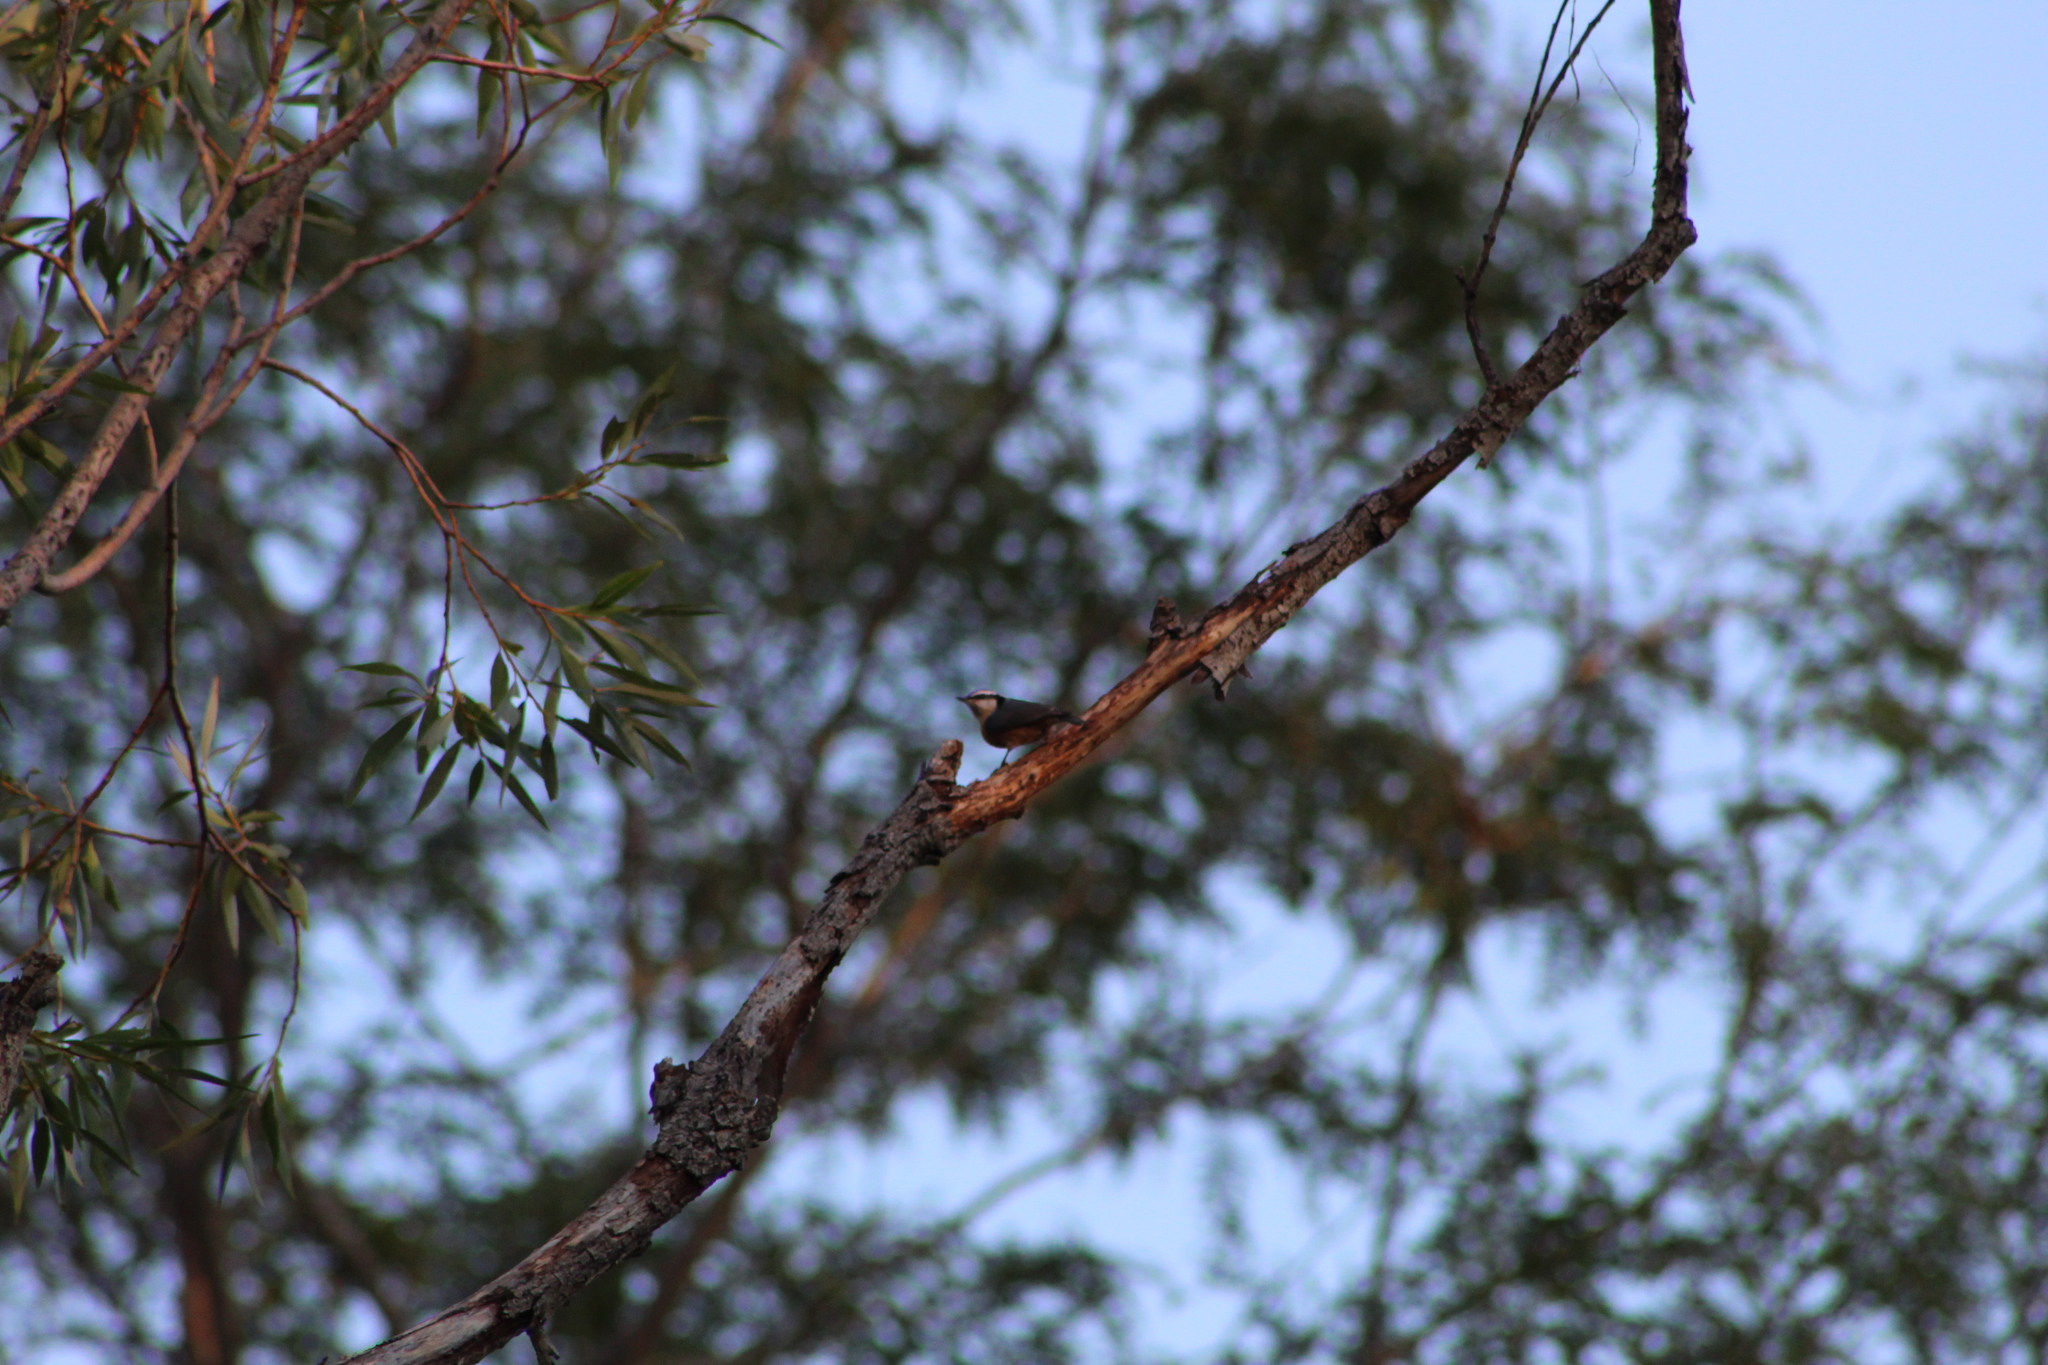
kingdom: Animalia
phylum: Chordata
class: Aves
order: Passeriformes
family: Sittidae
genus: Sitta
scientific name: Sitta canadensis
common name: Red-breasted nuthatch
